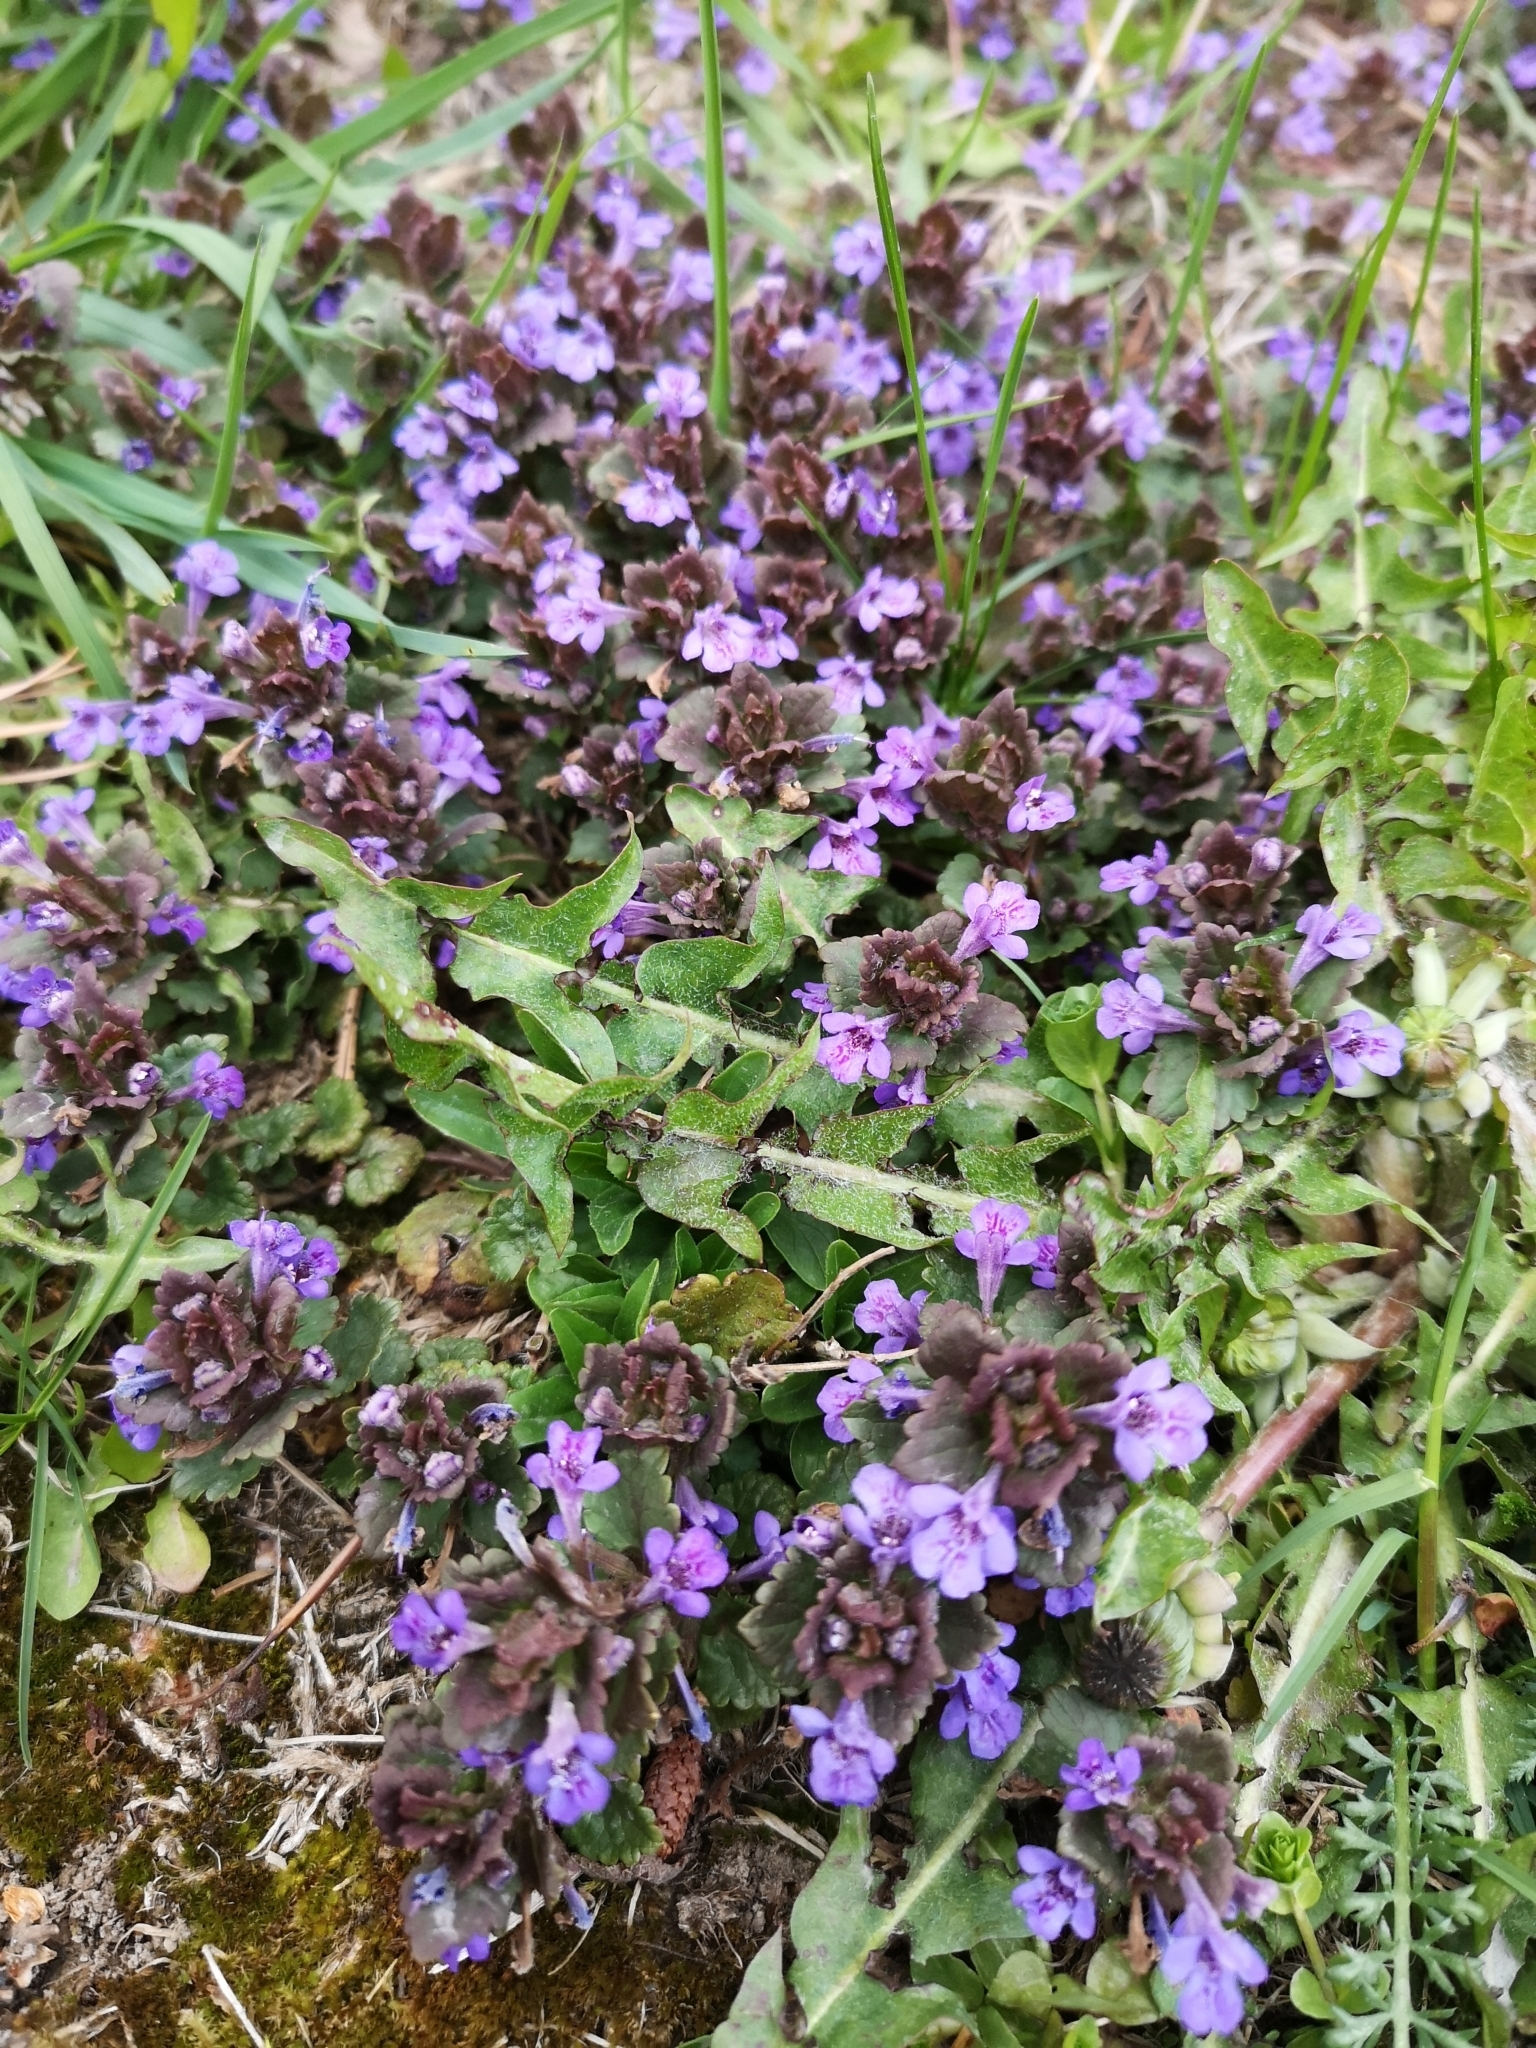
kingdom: Plantae
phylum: Tracheophyta
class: Magnoliopsida
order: Lamiales
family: Lamiaceae
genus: Glechoma
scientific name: Glechoma hederacea
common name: Ground ivy
